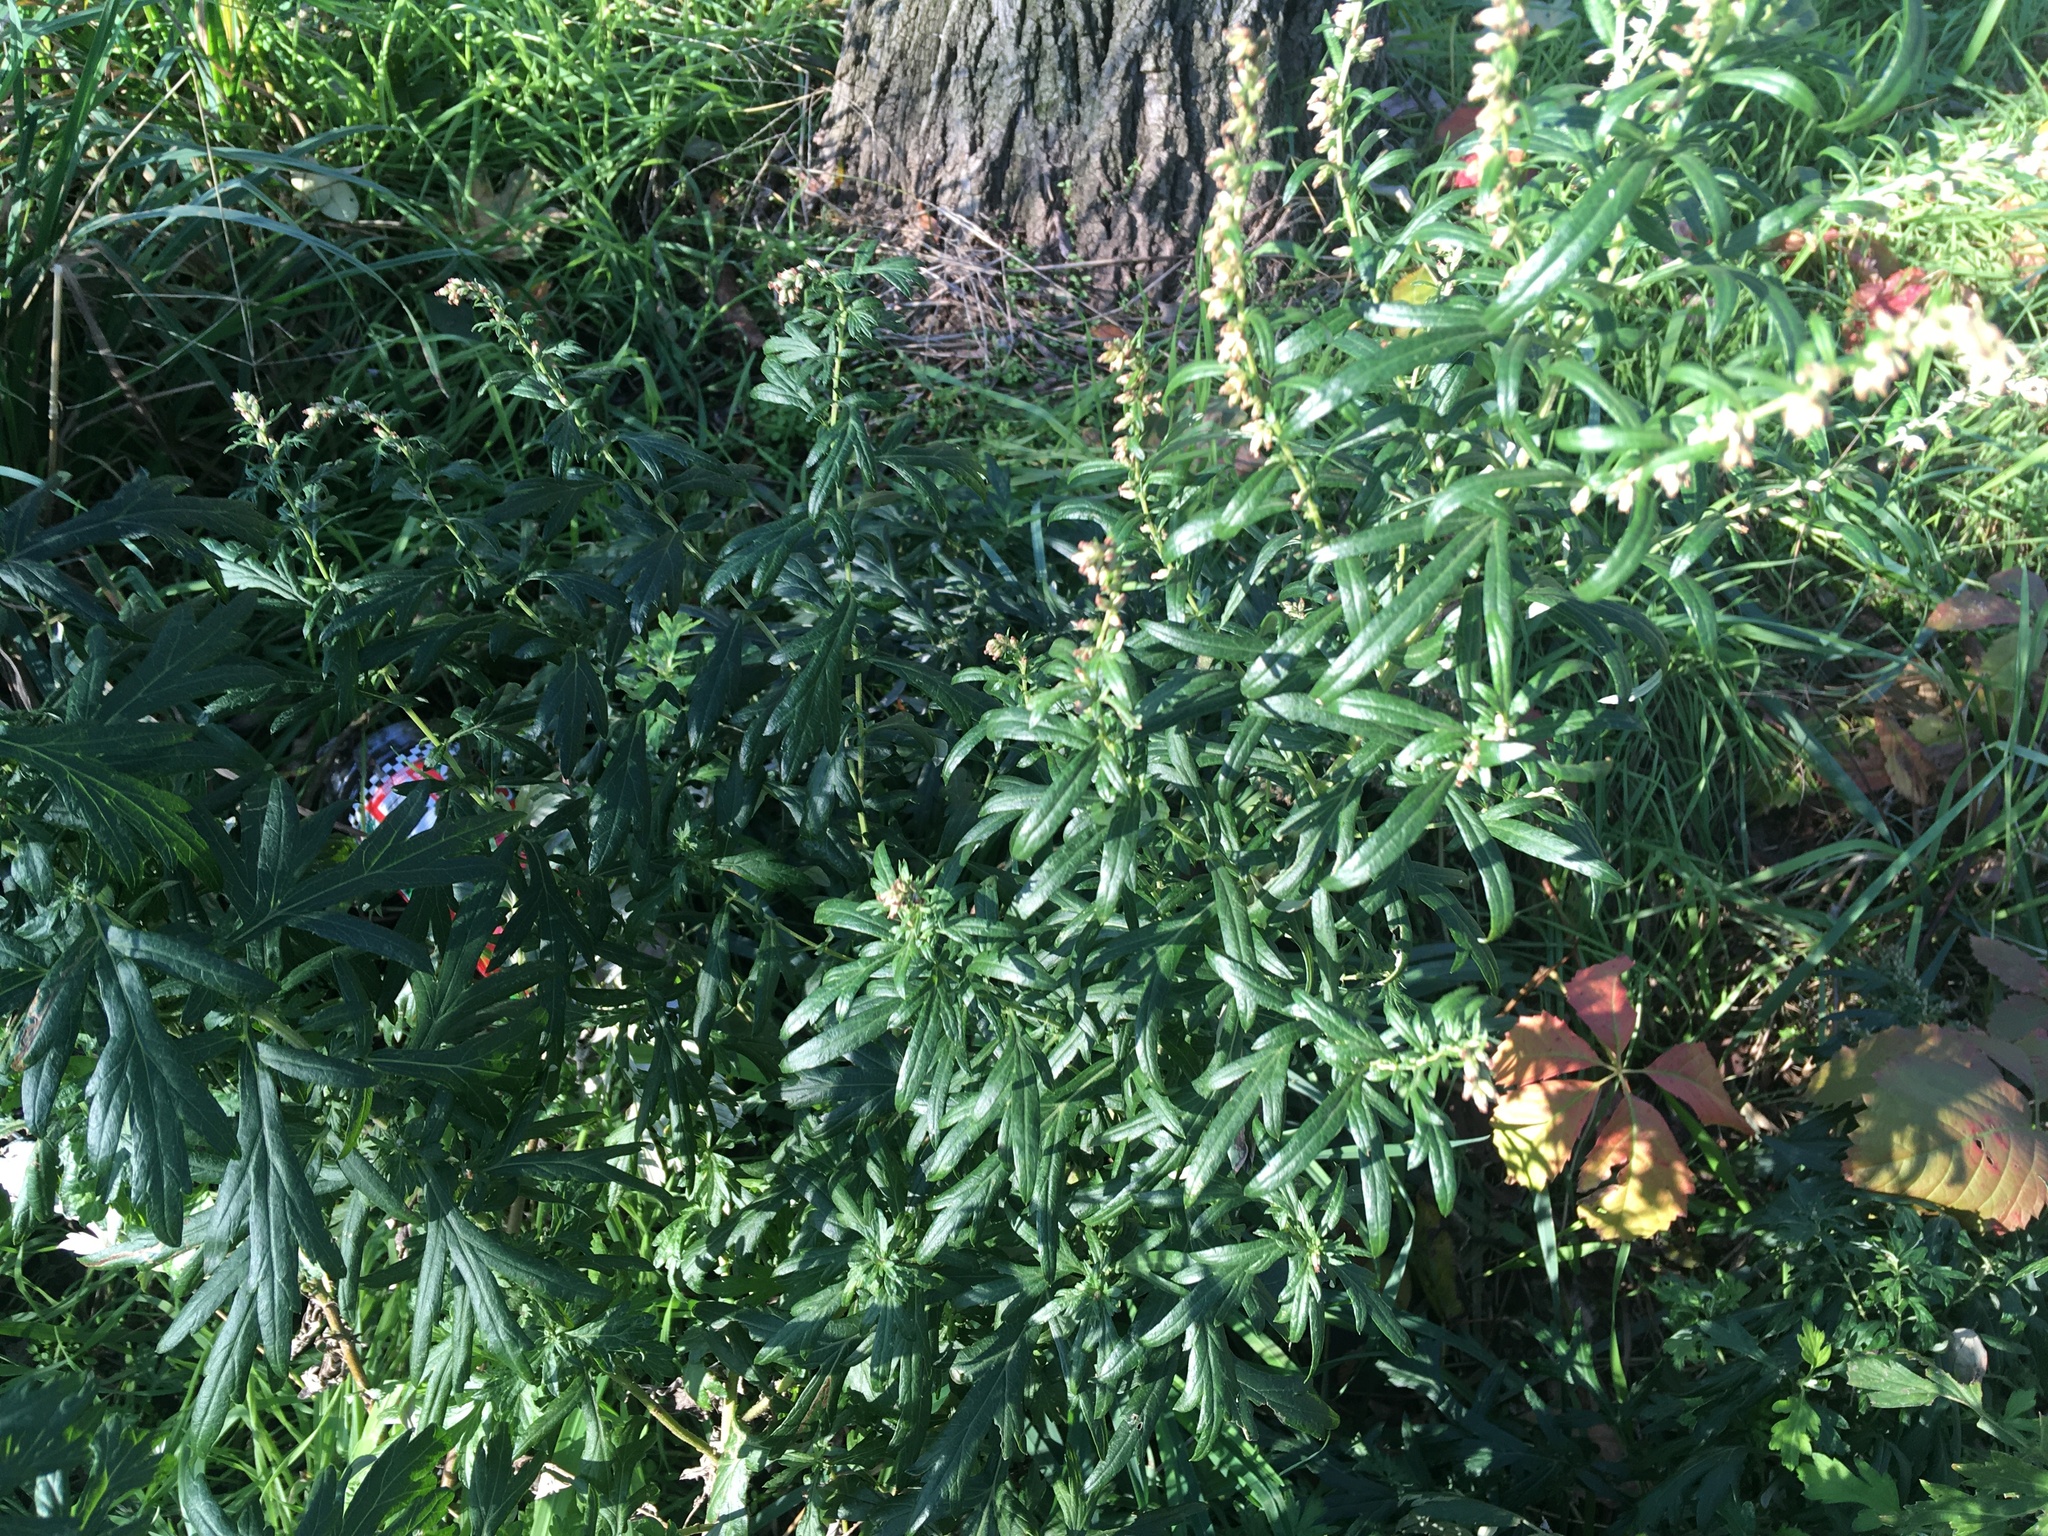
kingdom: Plantae
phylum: Tracheophyta
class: Magnoliopsida
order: Asterales
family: Asteraceae
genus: Artemisia
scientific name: Artemisia vulgaris
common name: Mugwort
